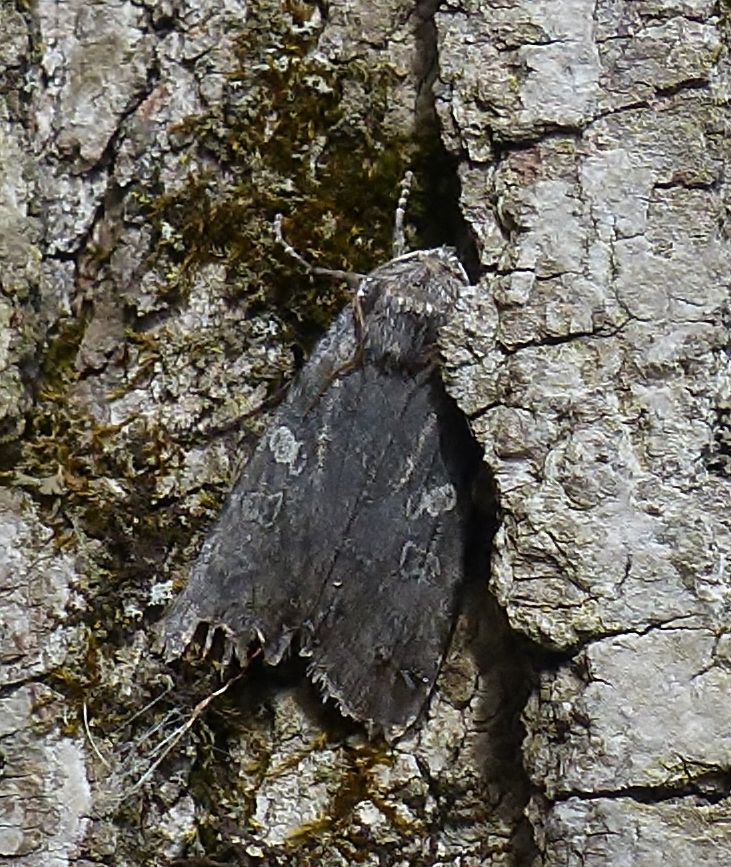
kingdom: Animalia
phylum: Arthropoda
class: Insecta
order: Lepidoptera
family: Noctuidae
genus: Lithophane
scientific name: Lithophane unimoda
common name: Dowdy pinion
